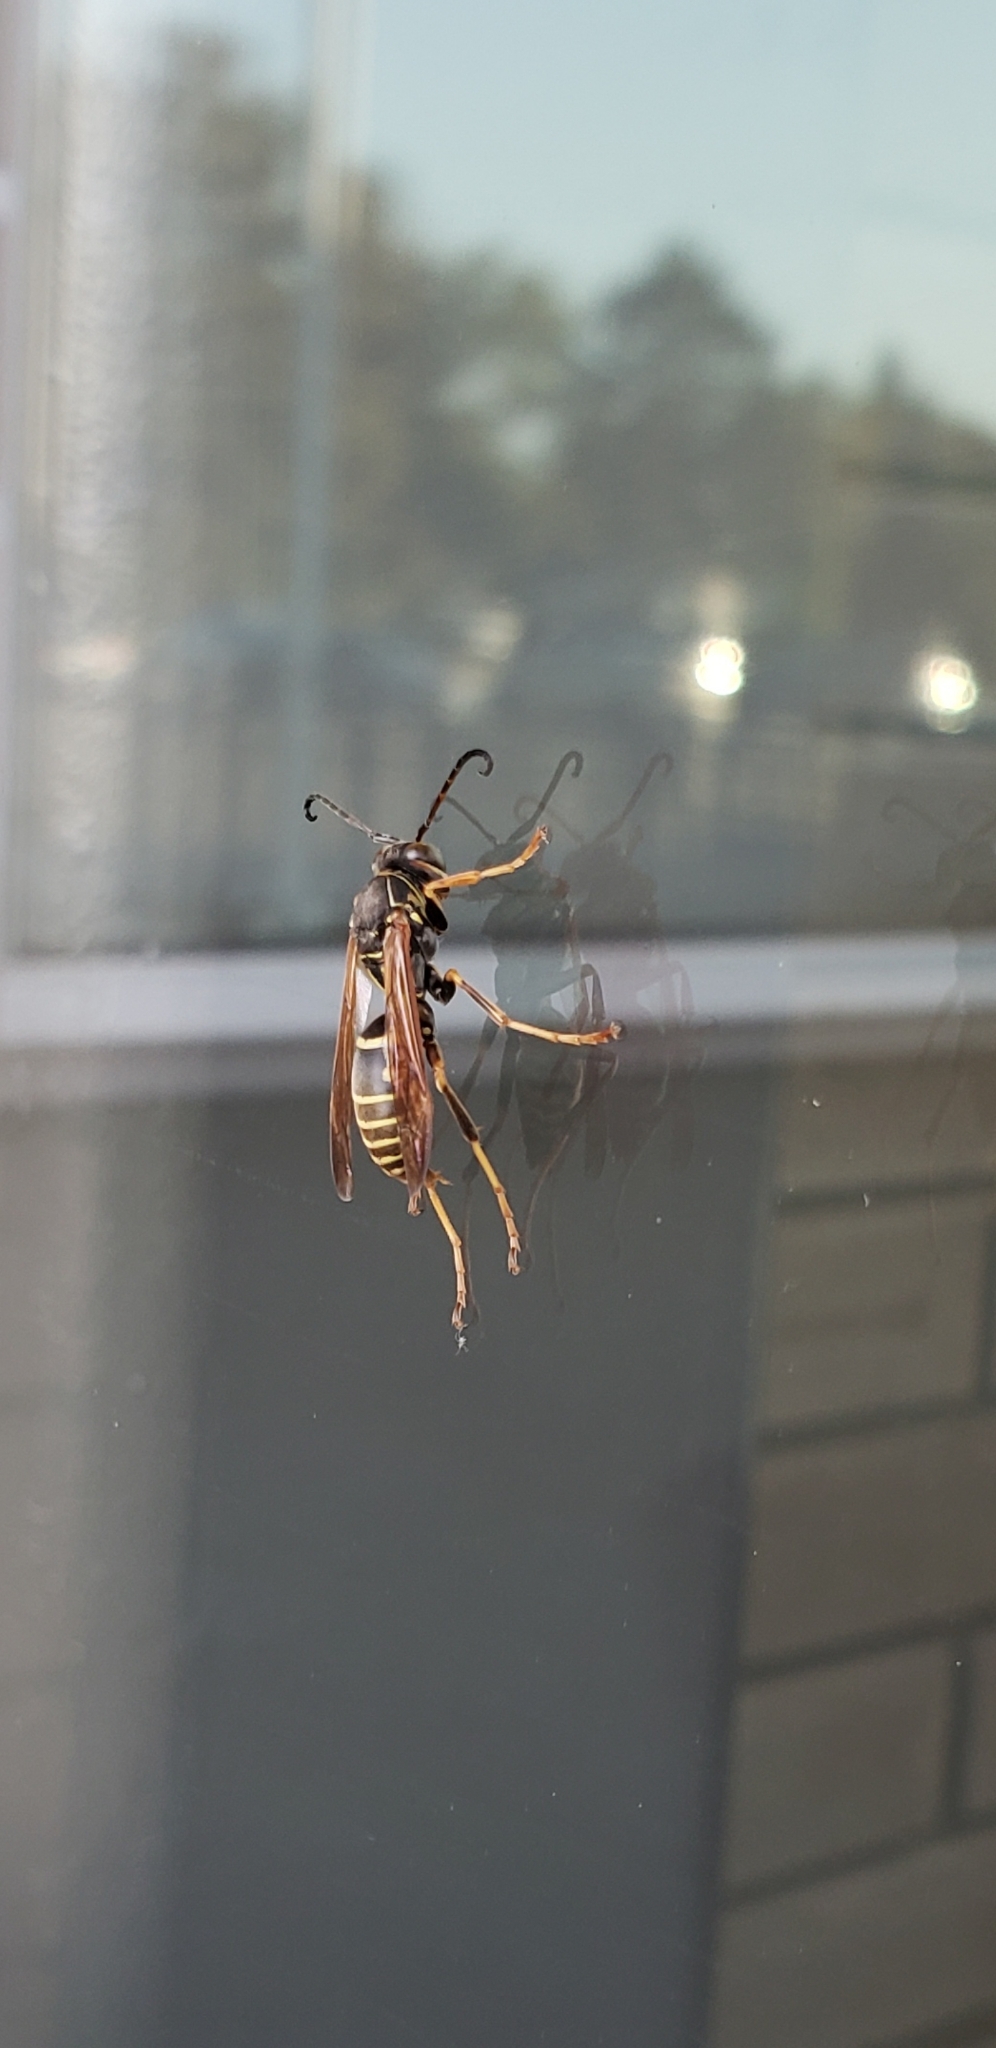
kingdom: Animalia
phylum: Arthropoda
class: Insecta
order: Hymenoptera
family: Eumenidae
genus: Polistes
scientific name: Polistes fuscatus
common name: Dark paper wasp
